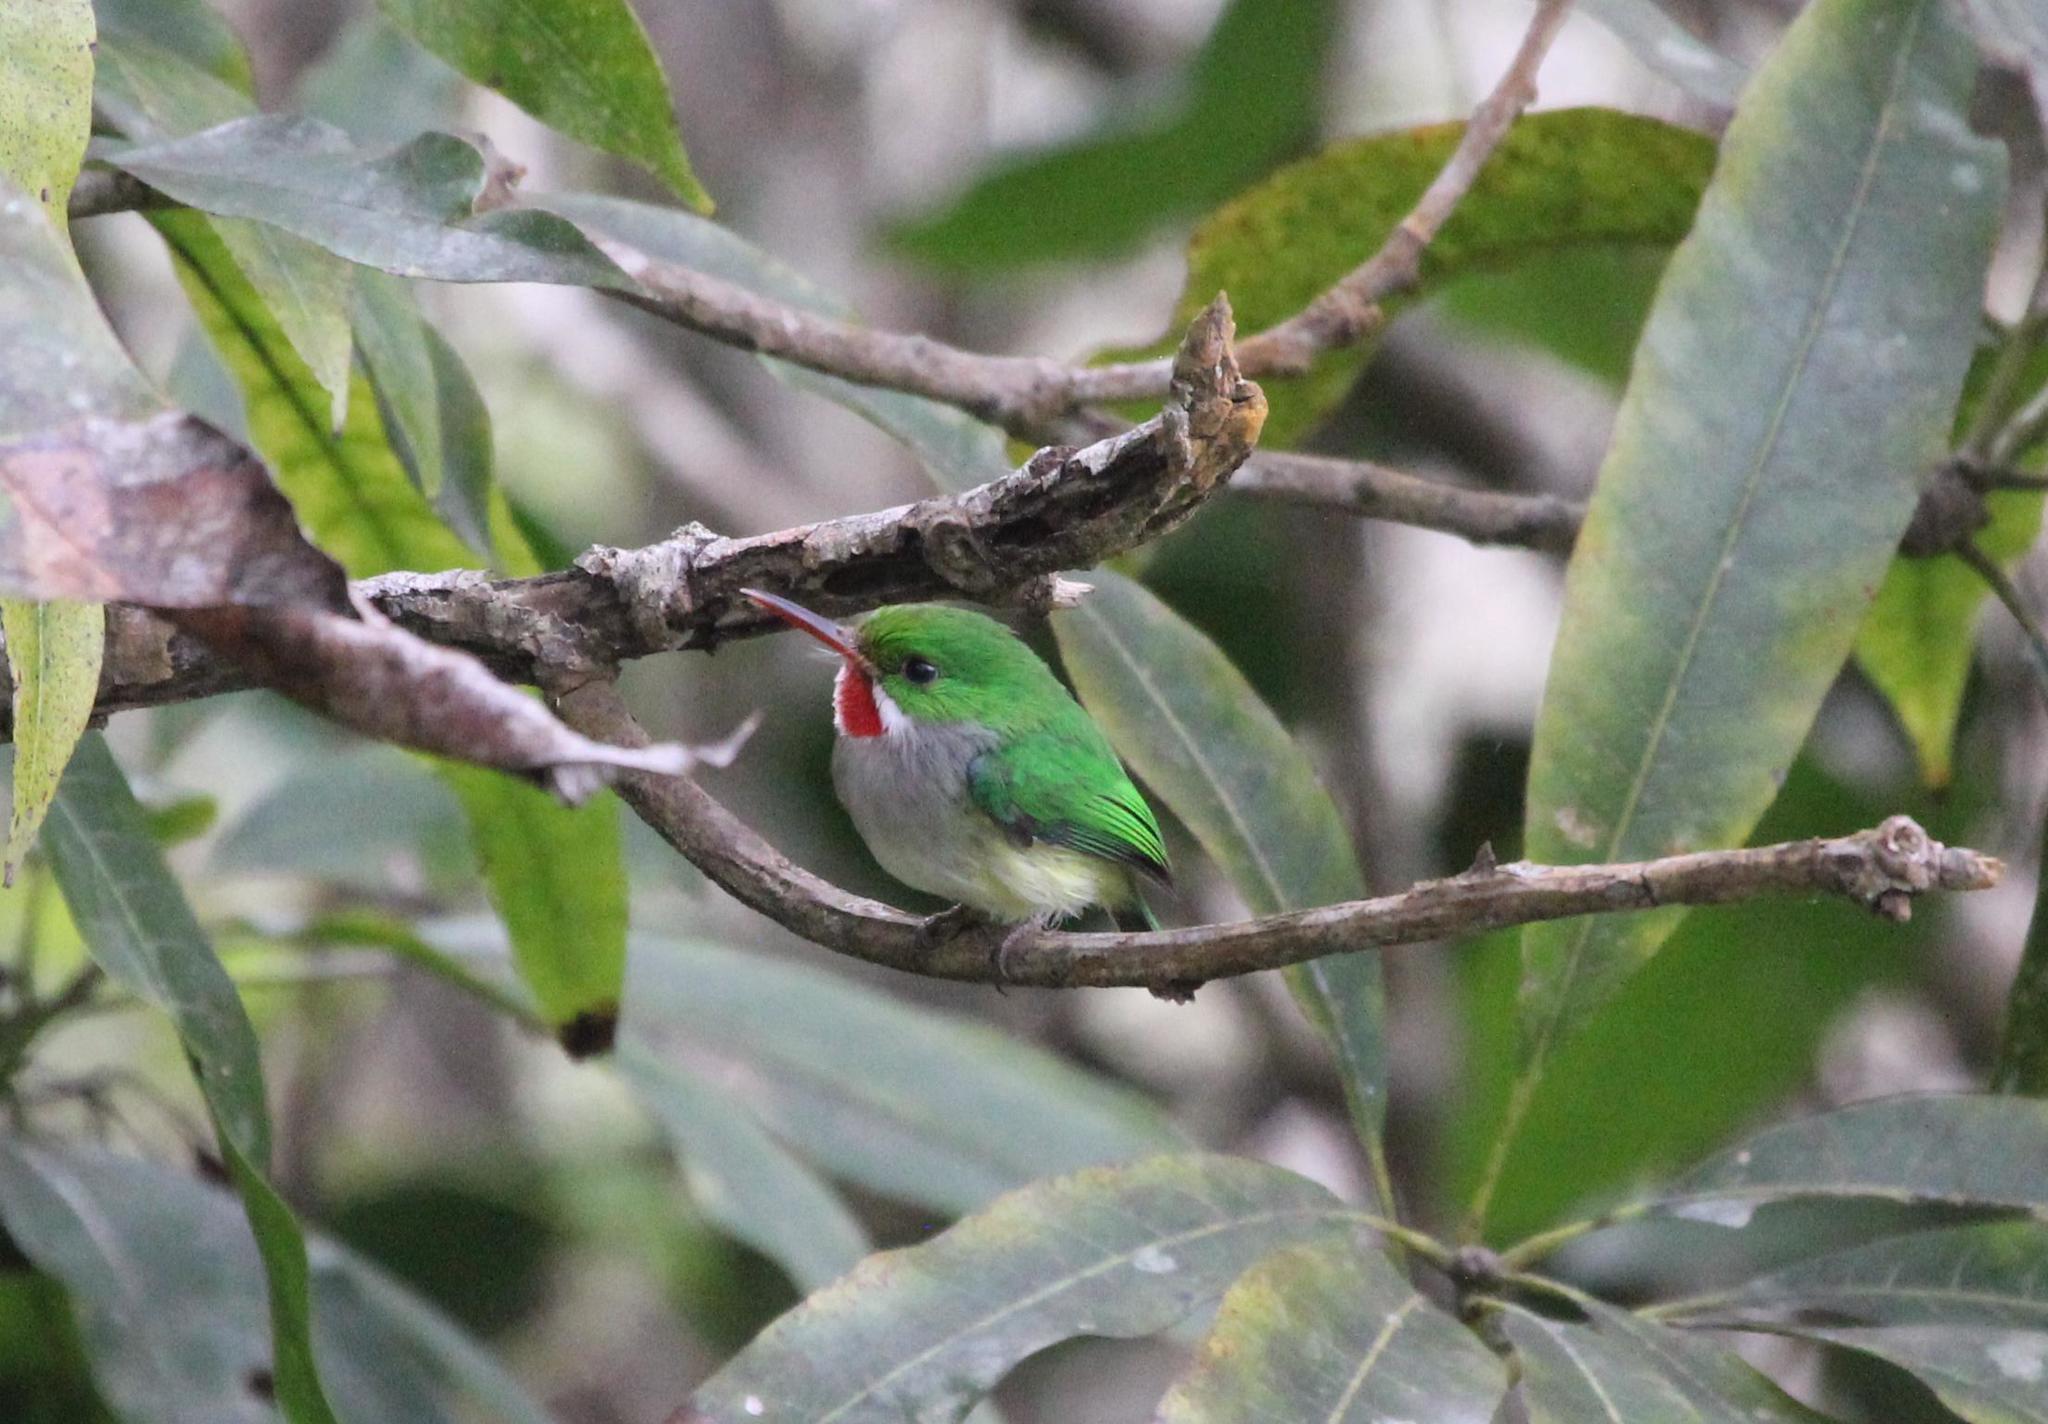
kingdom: Animalia
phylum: Chordata
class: Aves
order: Coraciiformes
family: Todidae
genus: Todus
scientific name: Todus mexicanus
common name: Puerto rican tody
